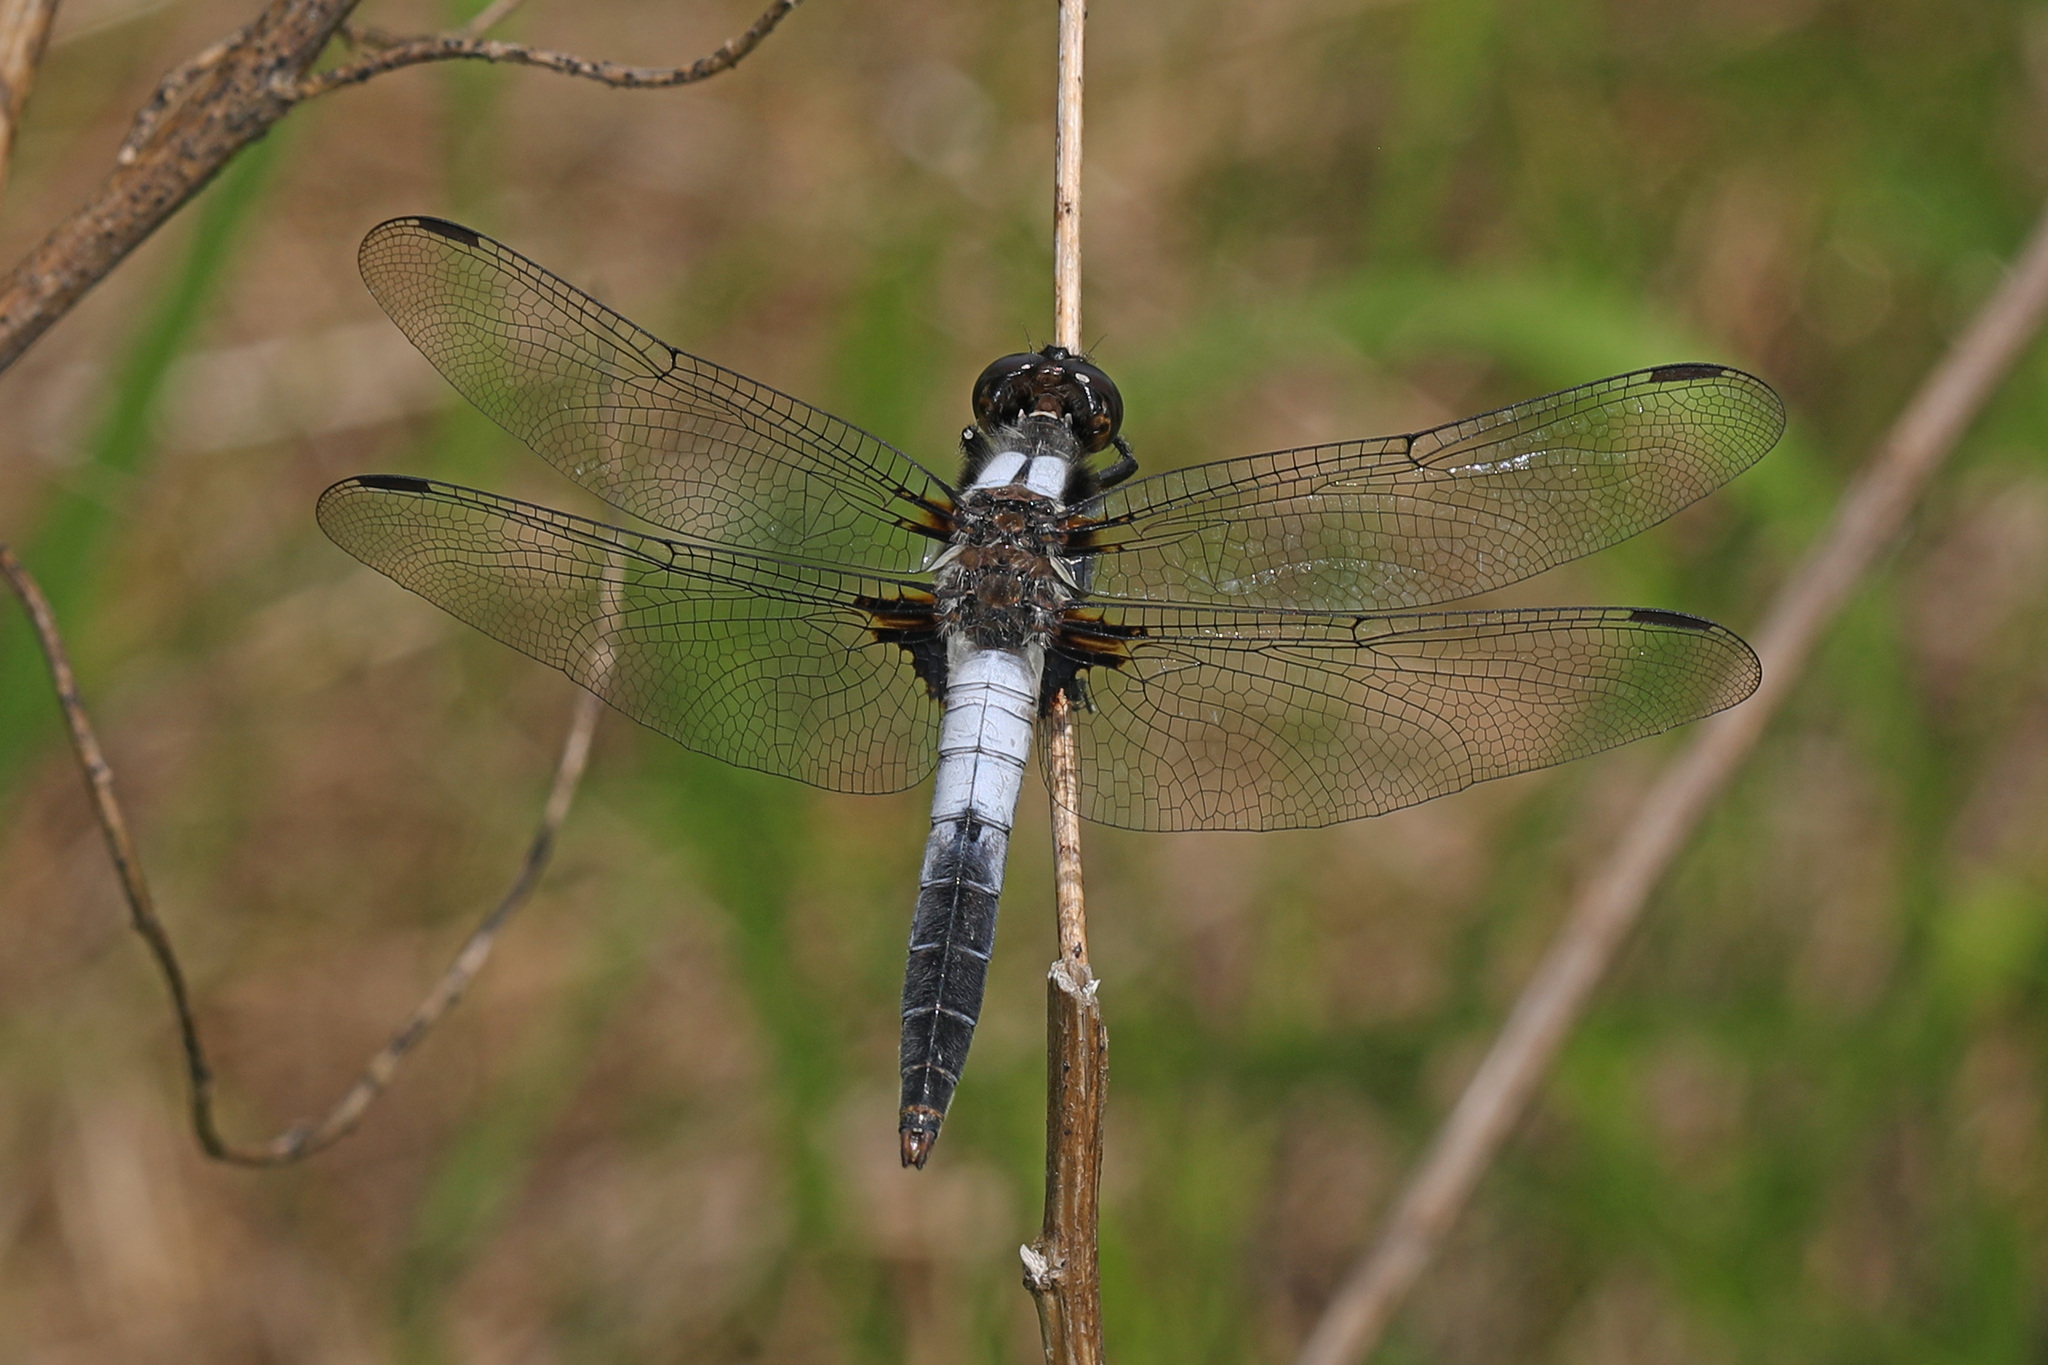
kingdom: Animalia
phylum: Arthropoda
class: Insecta
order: Odonata
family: Libellulidae
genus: Ladona
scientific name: Ladona julia
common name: Chalk-fronted corporal
